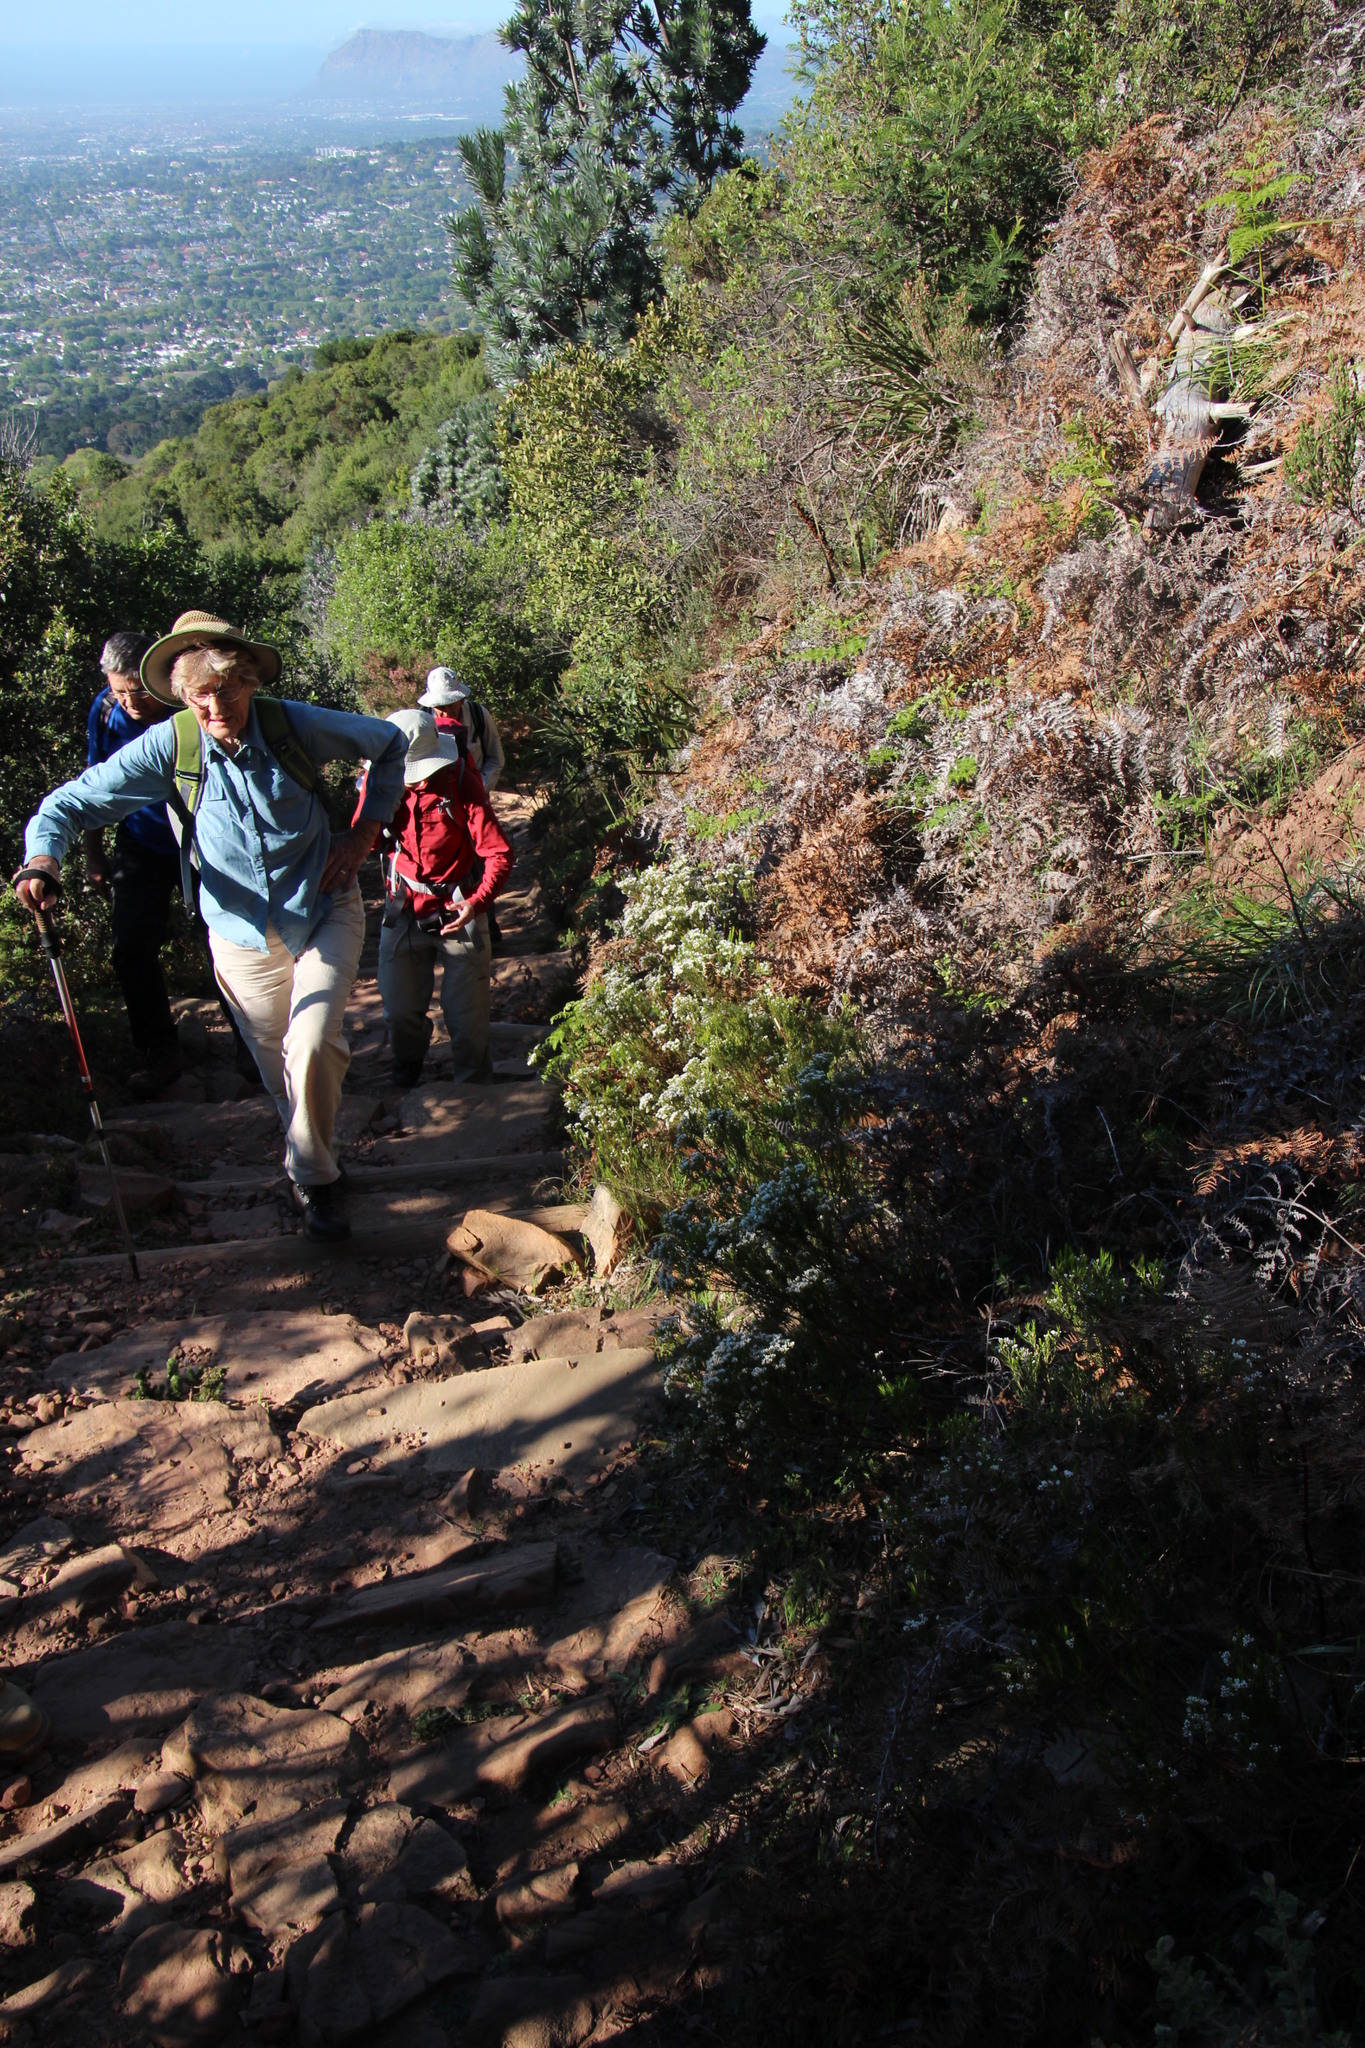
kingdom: Plantae
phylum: Tracheophyta
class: Polypodiopsida
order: Polypodiales
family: Dennstaedtiaceae
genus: Pteridium
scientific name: Pteridium aquilinum
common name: Bracken
